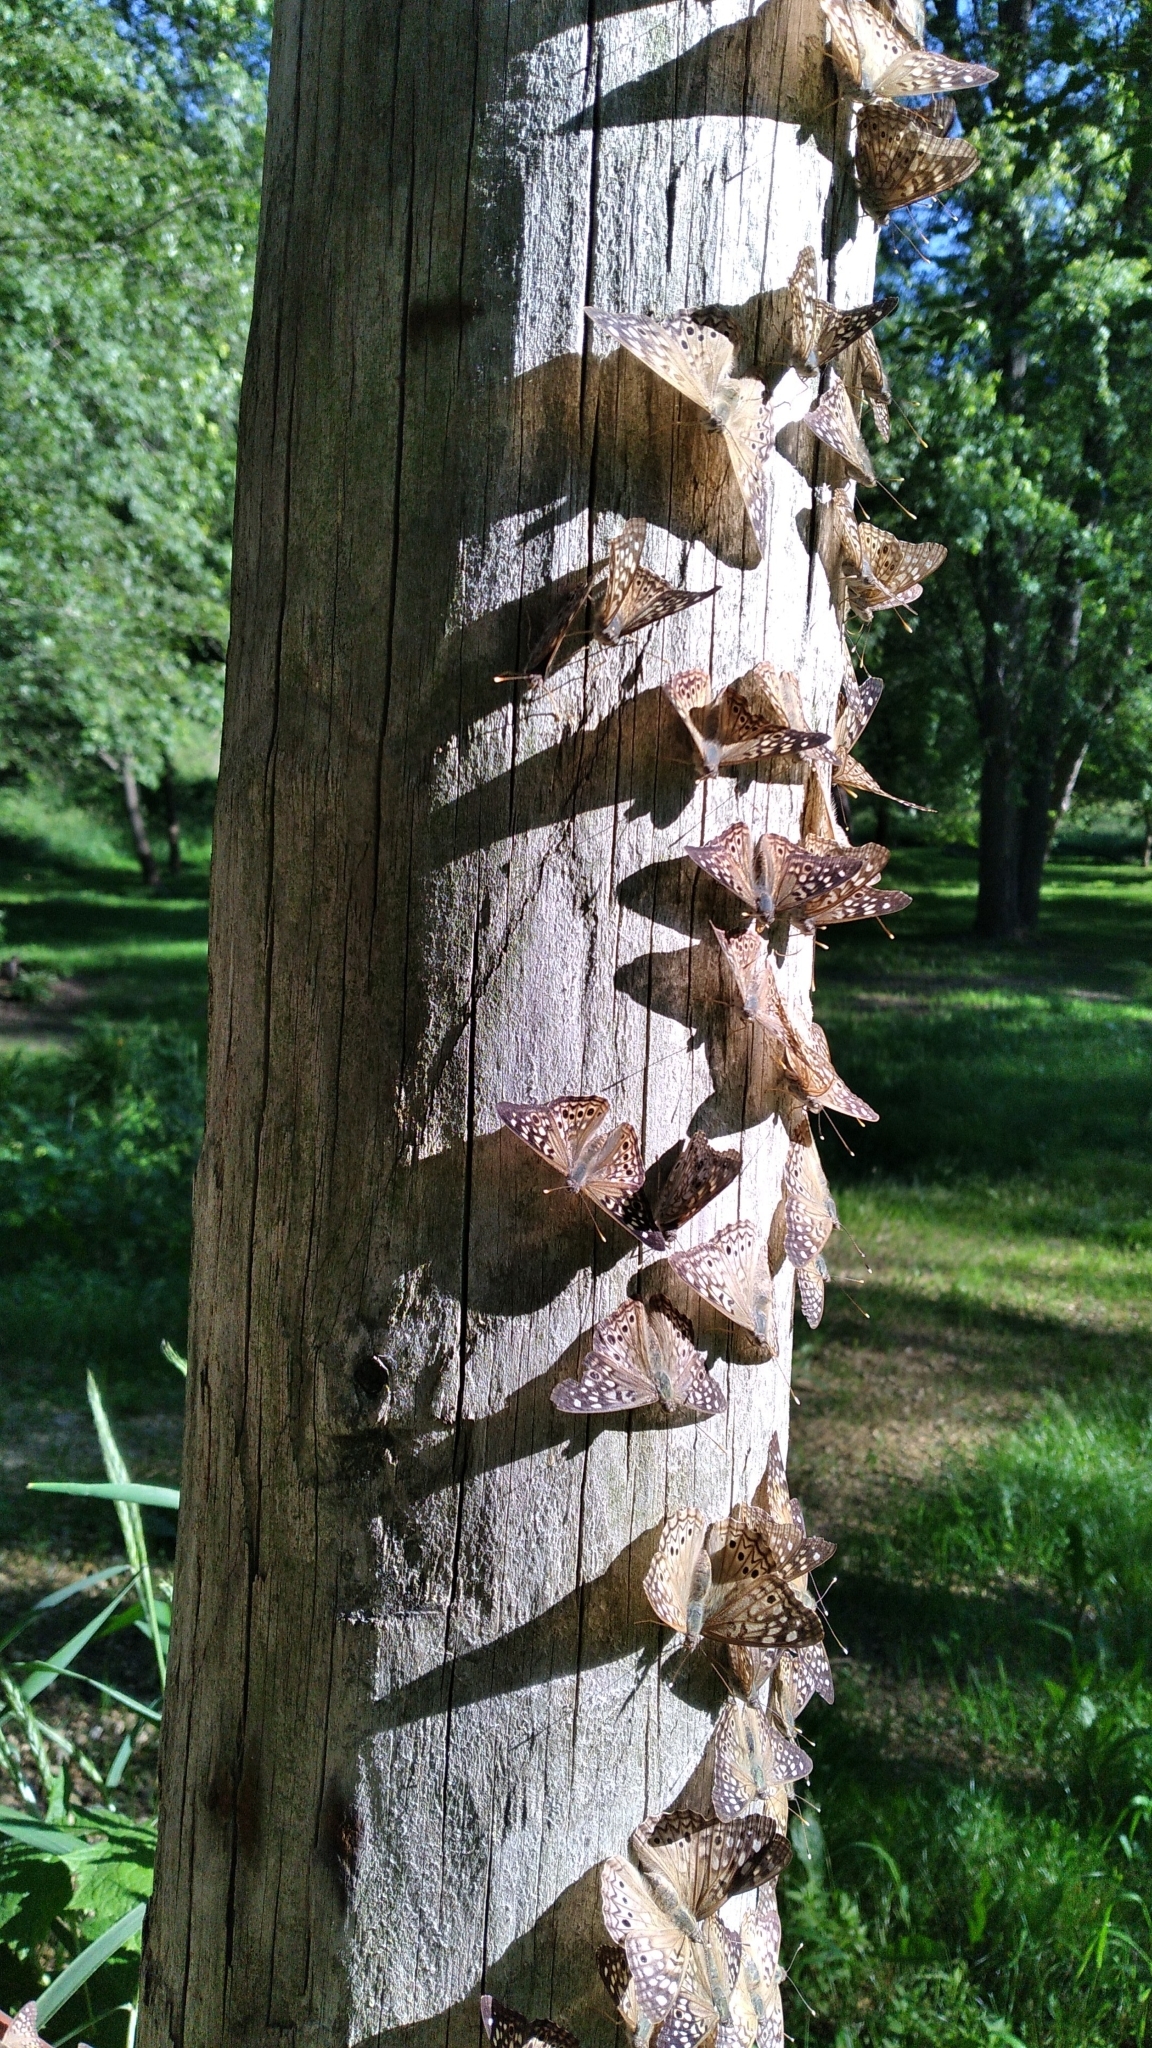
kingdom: Animalia
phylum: Arthropoda
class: Insecta
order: Lepidoptera
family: Nymphalidae
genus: Asterocampa
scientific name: Asterocampa celtis
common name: Hackberry emperor
